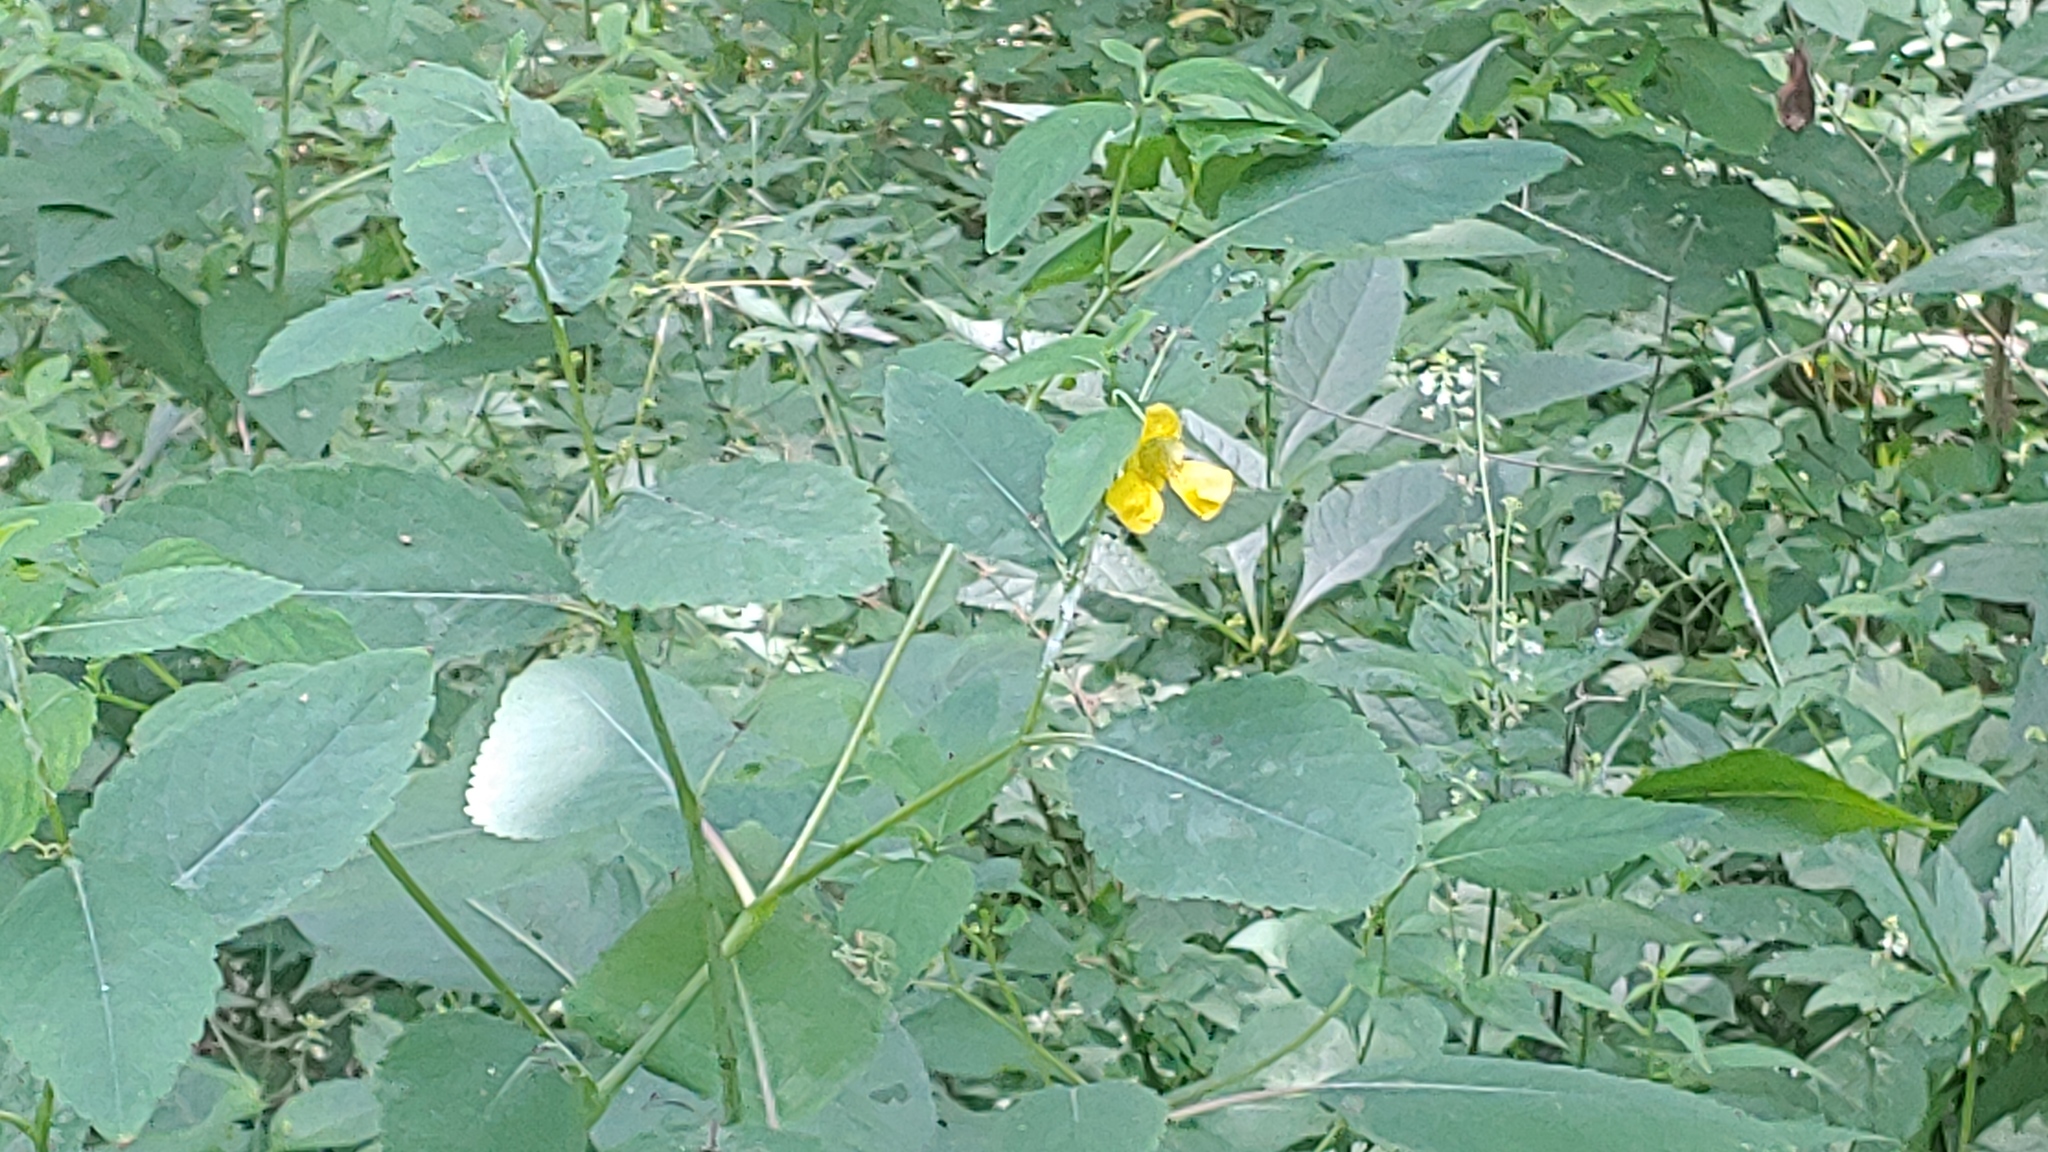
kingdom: Plantae
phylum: Tracheophyta
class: Magnoliopsida
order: Ericales
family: Balsaminaceae
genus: Impatiens
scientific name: Impatiens pallida
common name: Pale snapweed
